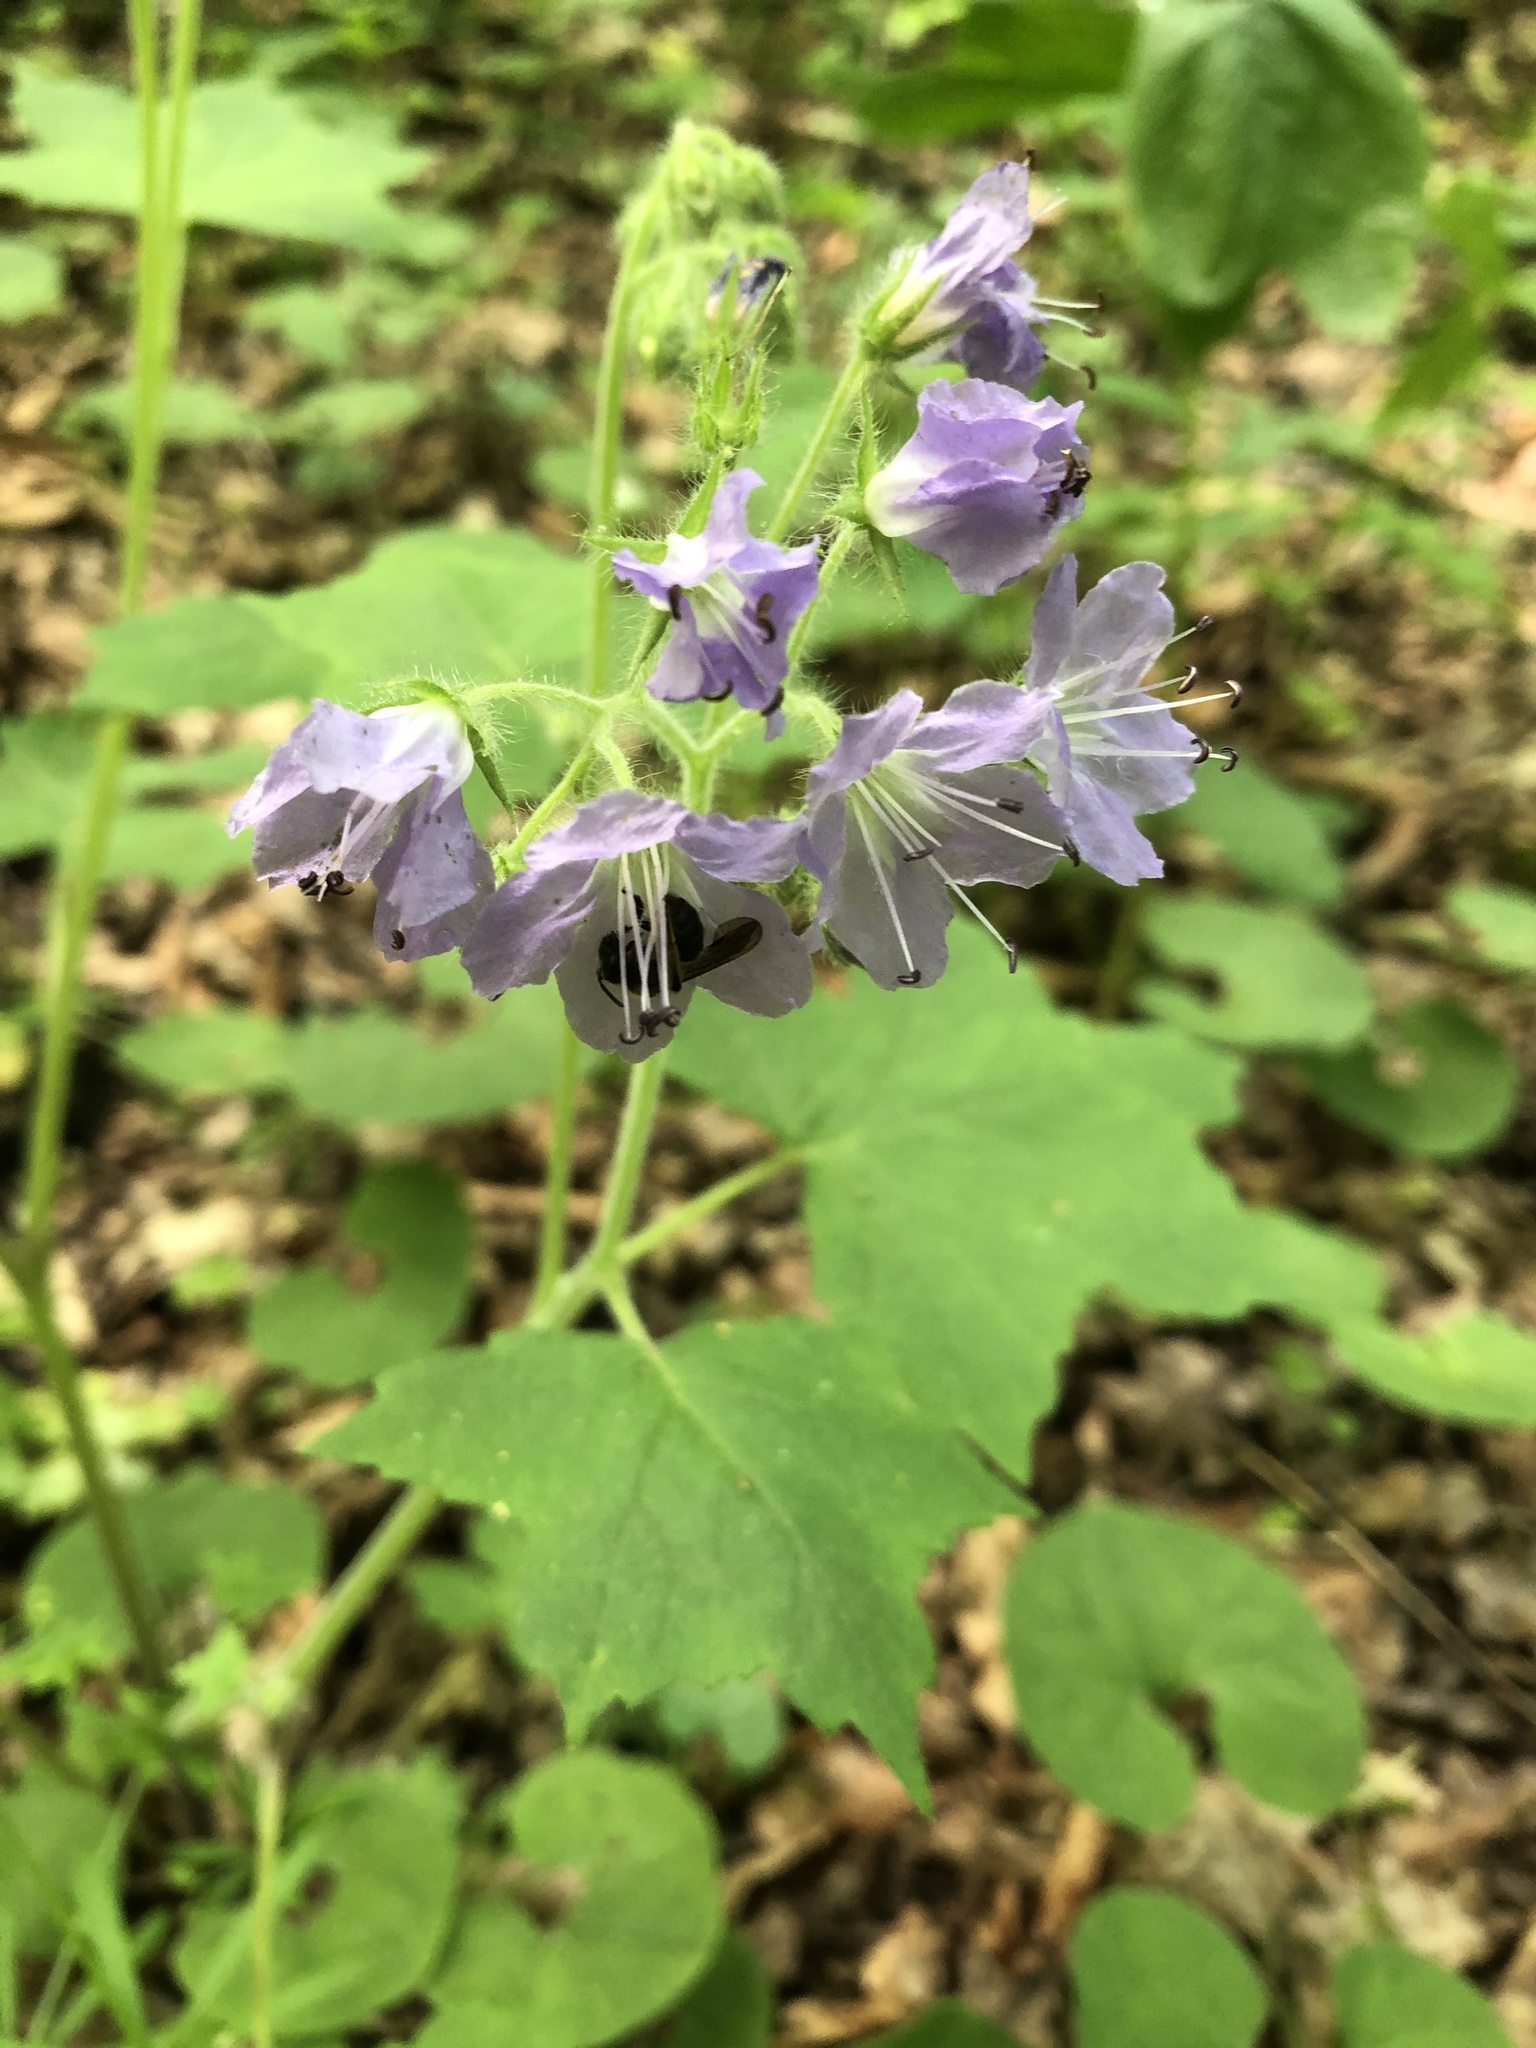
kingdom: Plantae
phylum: Tracheophyta
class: Magnoliopsida
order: Boraginales
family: Hydrophyllaceae
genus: Hydrophyllum
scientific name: Hydrophyllum appendiculatum
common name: Appendaged waterleaf
